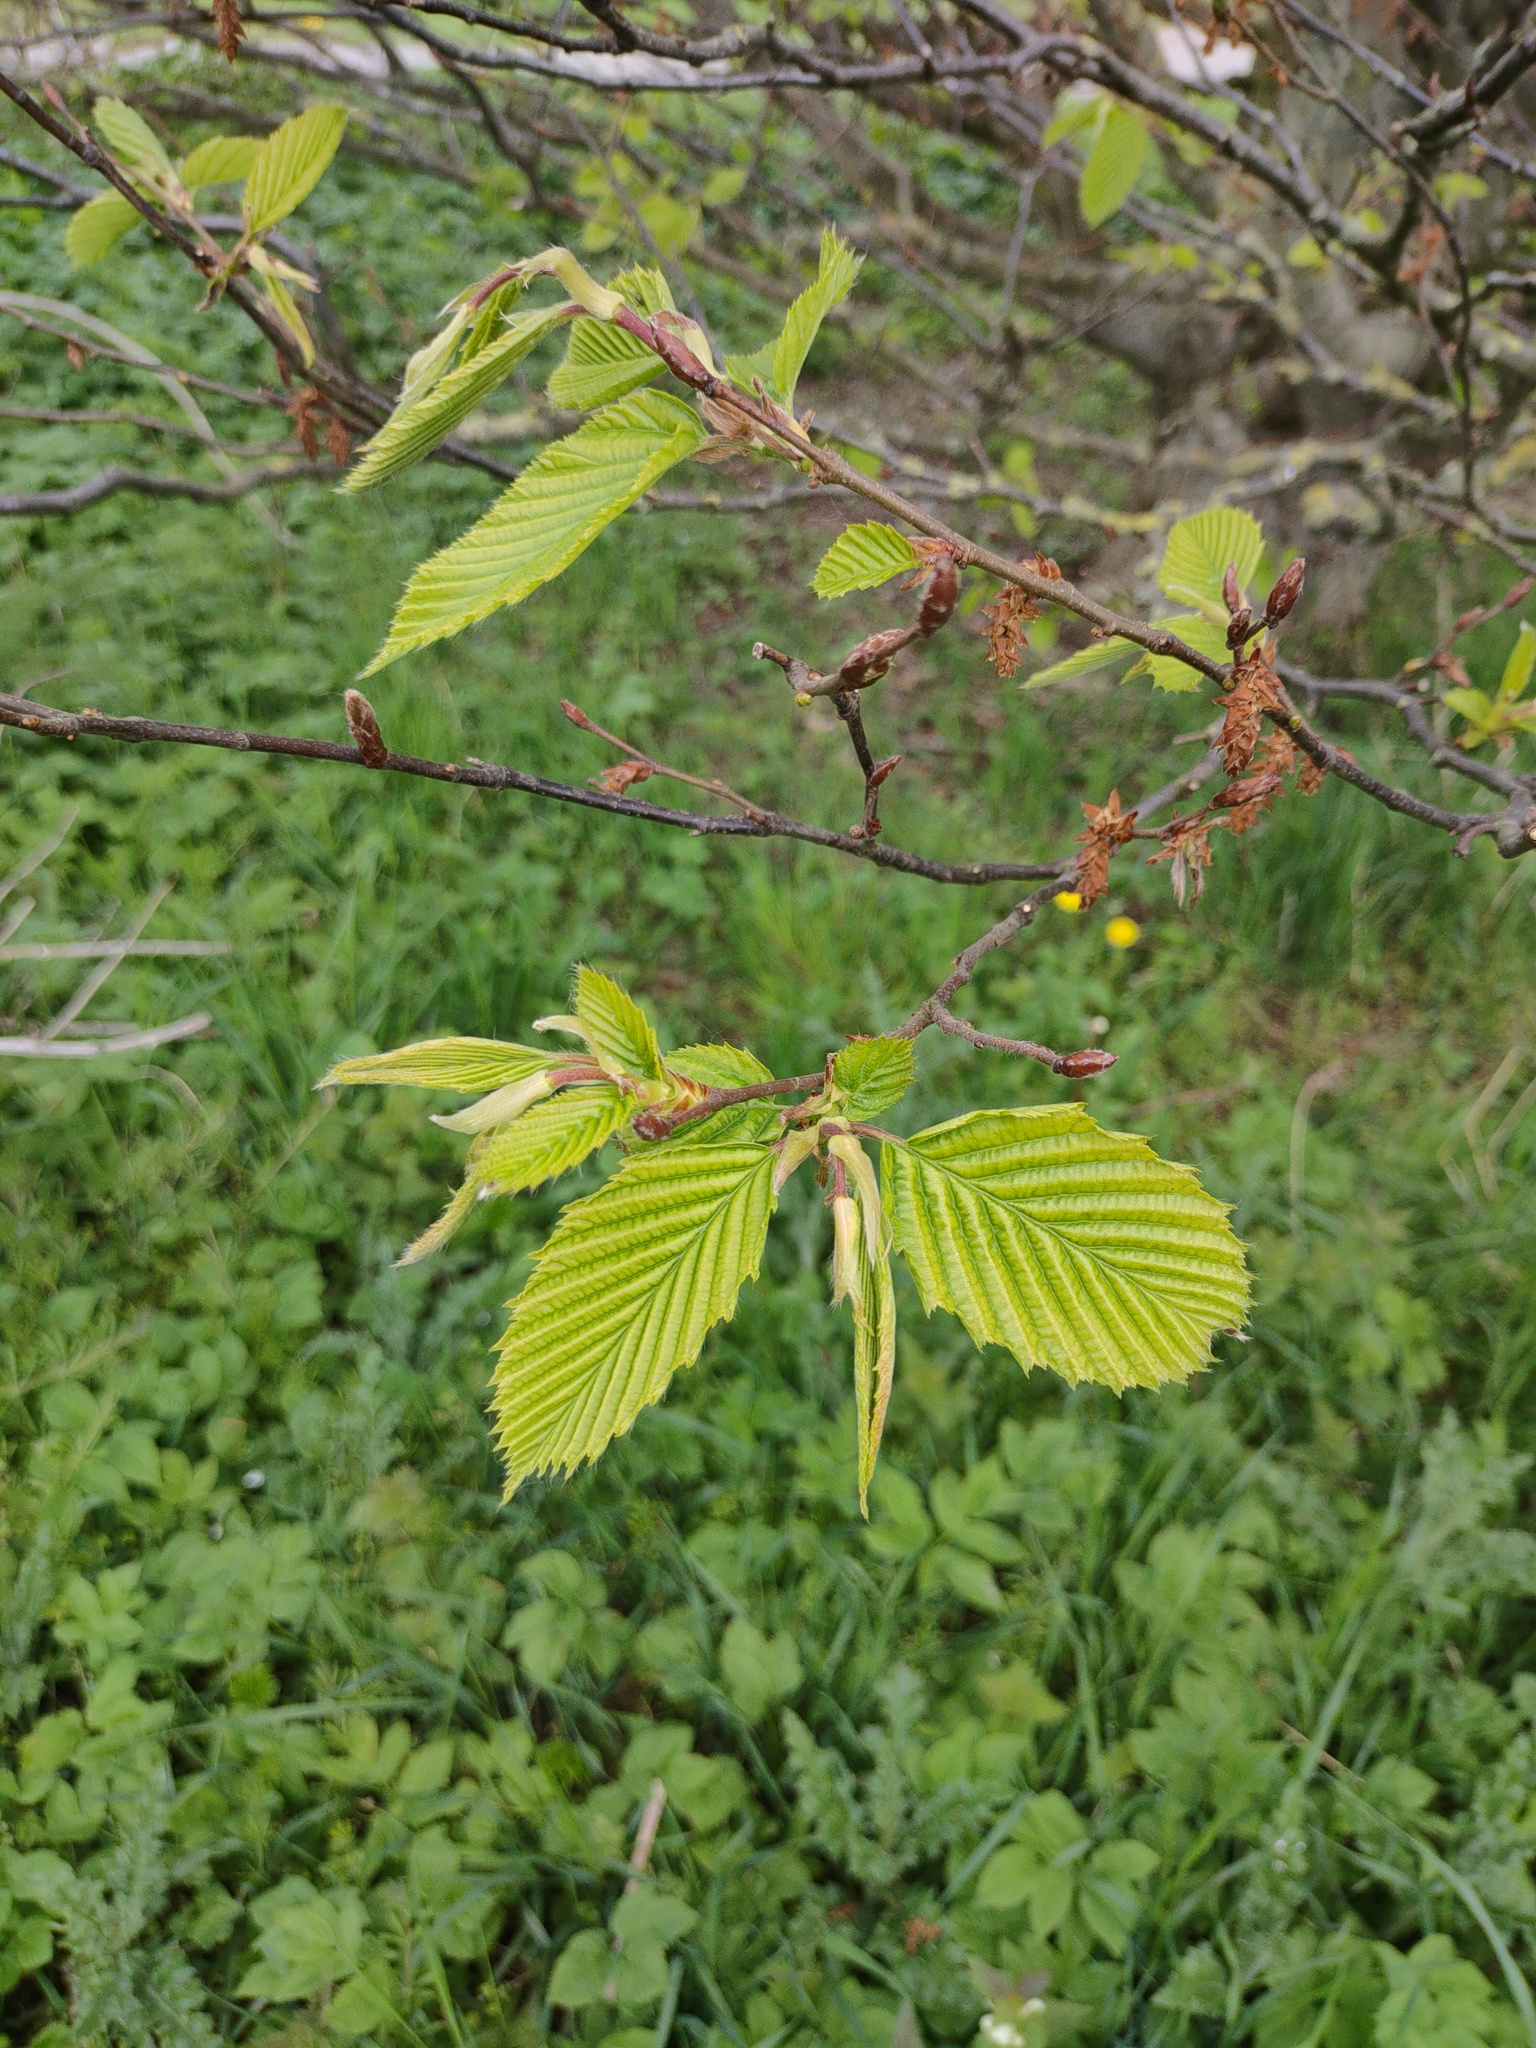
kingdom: Plantae
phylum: Tracheophyta
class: Magnoliopsida
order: Fagales
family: Betulaceae
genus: Carpinus
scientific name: Carpinus betulus
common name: Hornbeam
